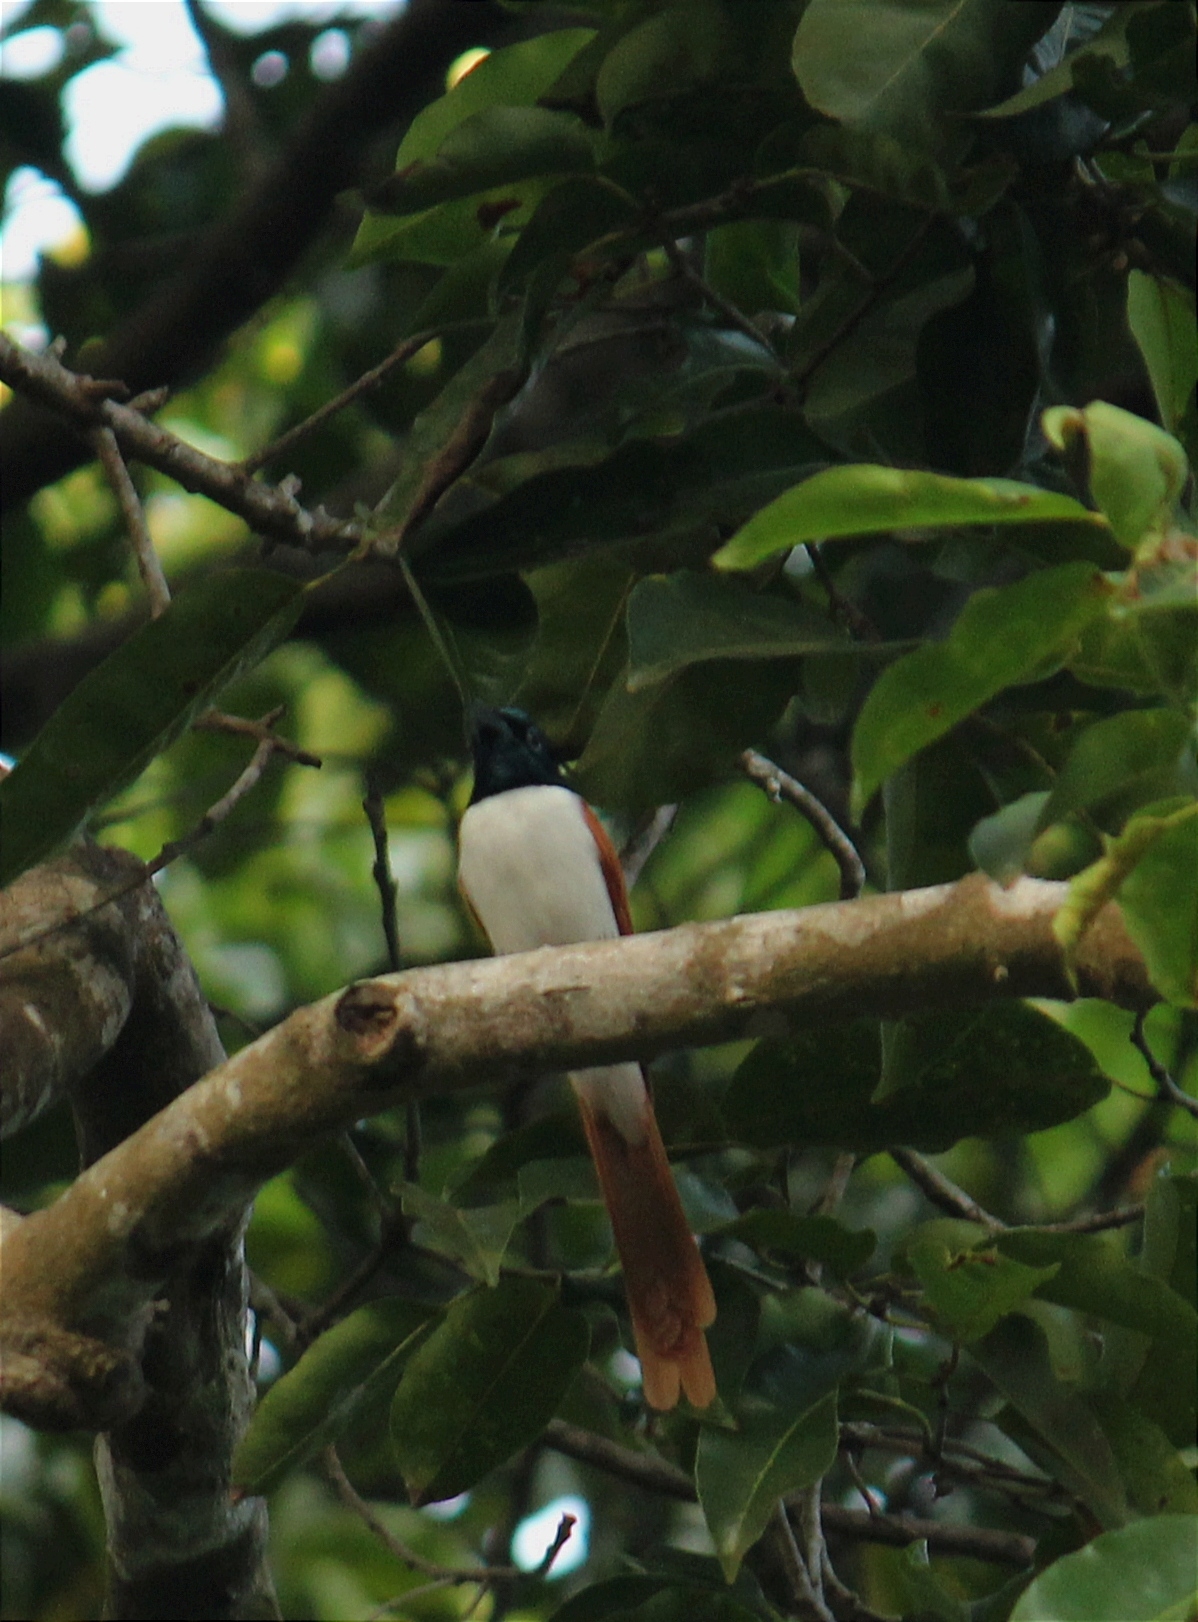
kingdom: Animalia
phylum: Chordata
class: Aves
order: Passeriformes
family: Monarchidae
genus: Terpsiphone
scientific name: Terpsiphone paradisi
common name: Indian paradise flycatcher
